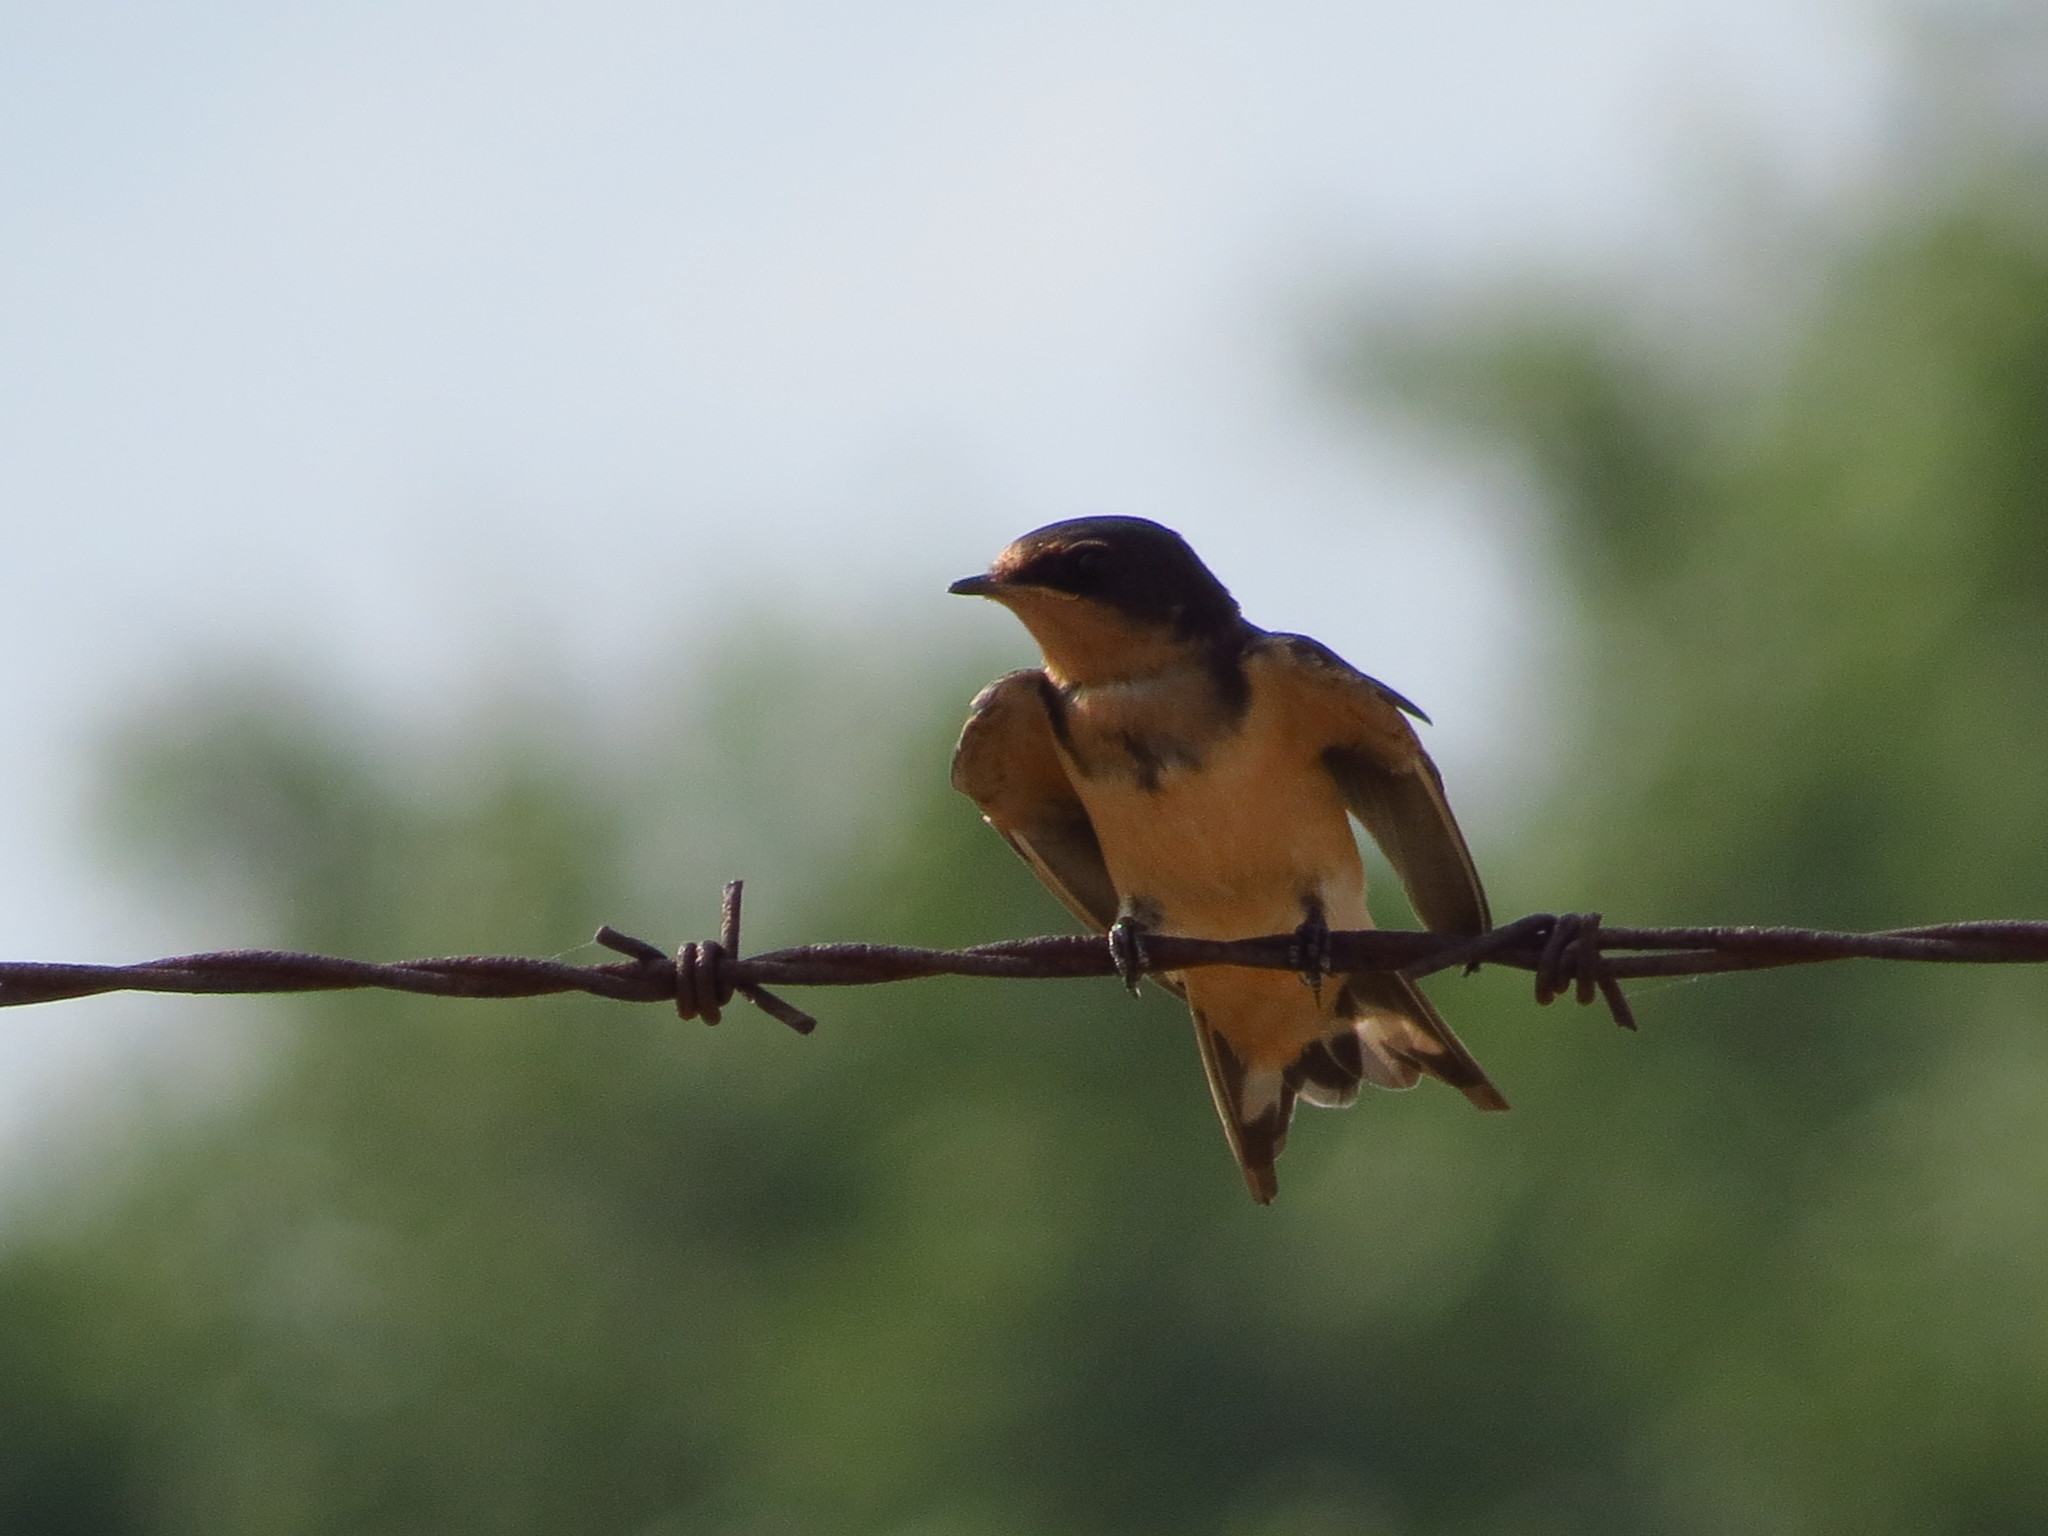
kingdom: Animalia
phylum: Chordata
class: Aves
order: Passeriformes
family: Hirundinidae
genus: Hirundo
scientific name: Hirundo rustica
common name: Barn swallow
